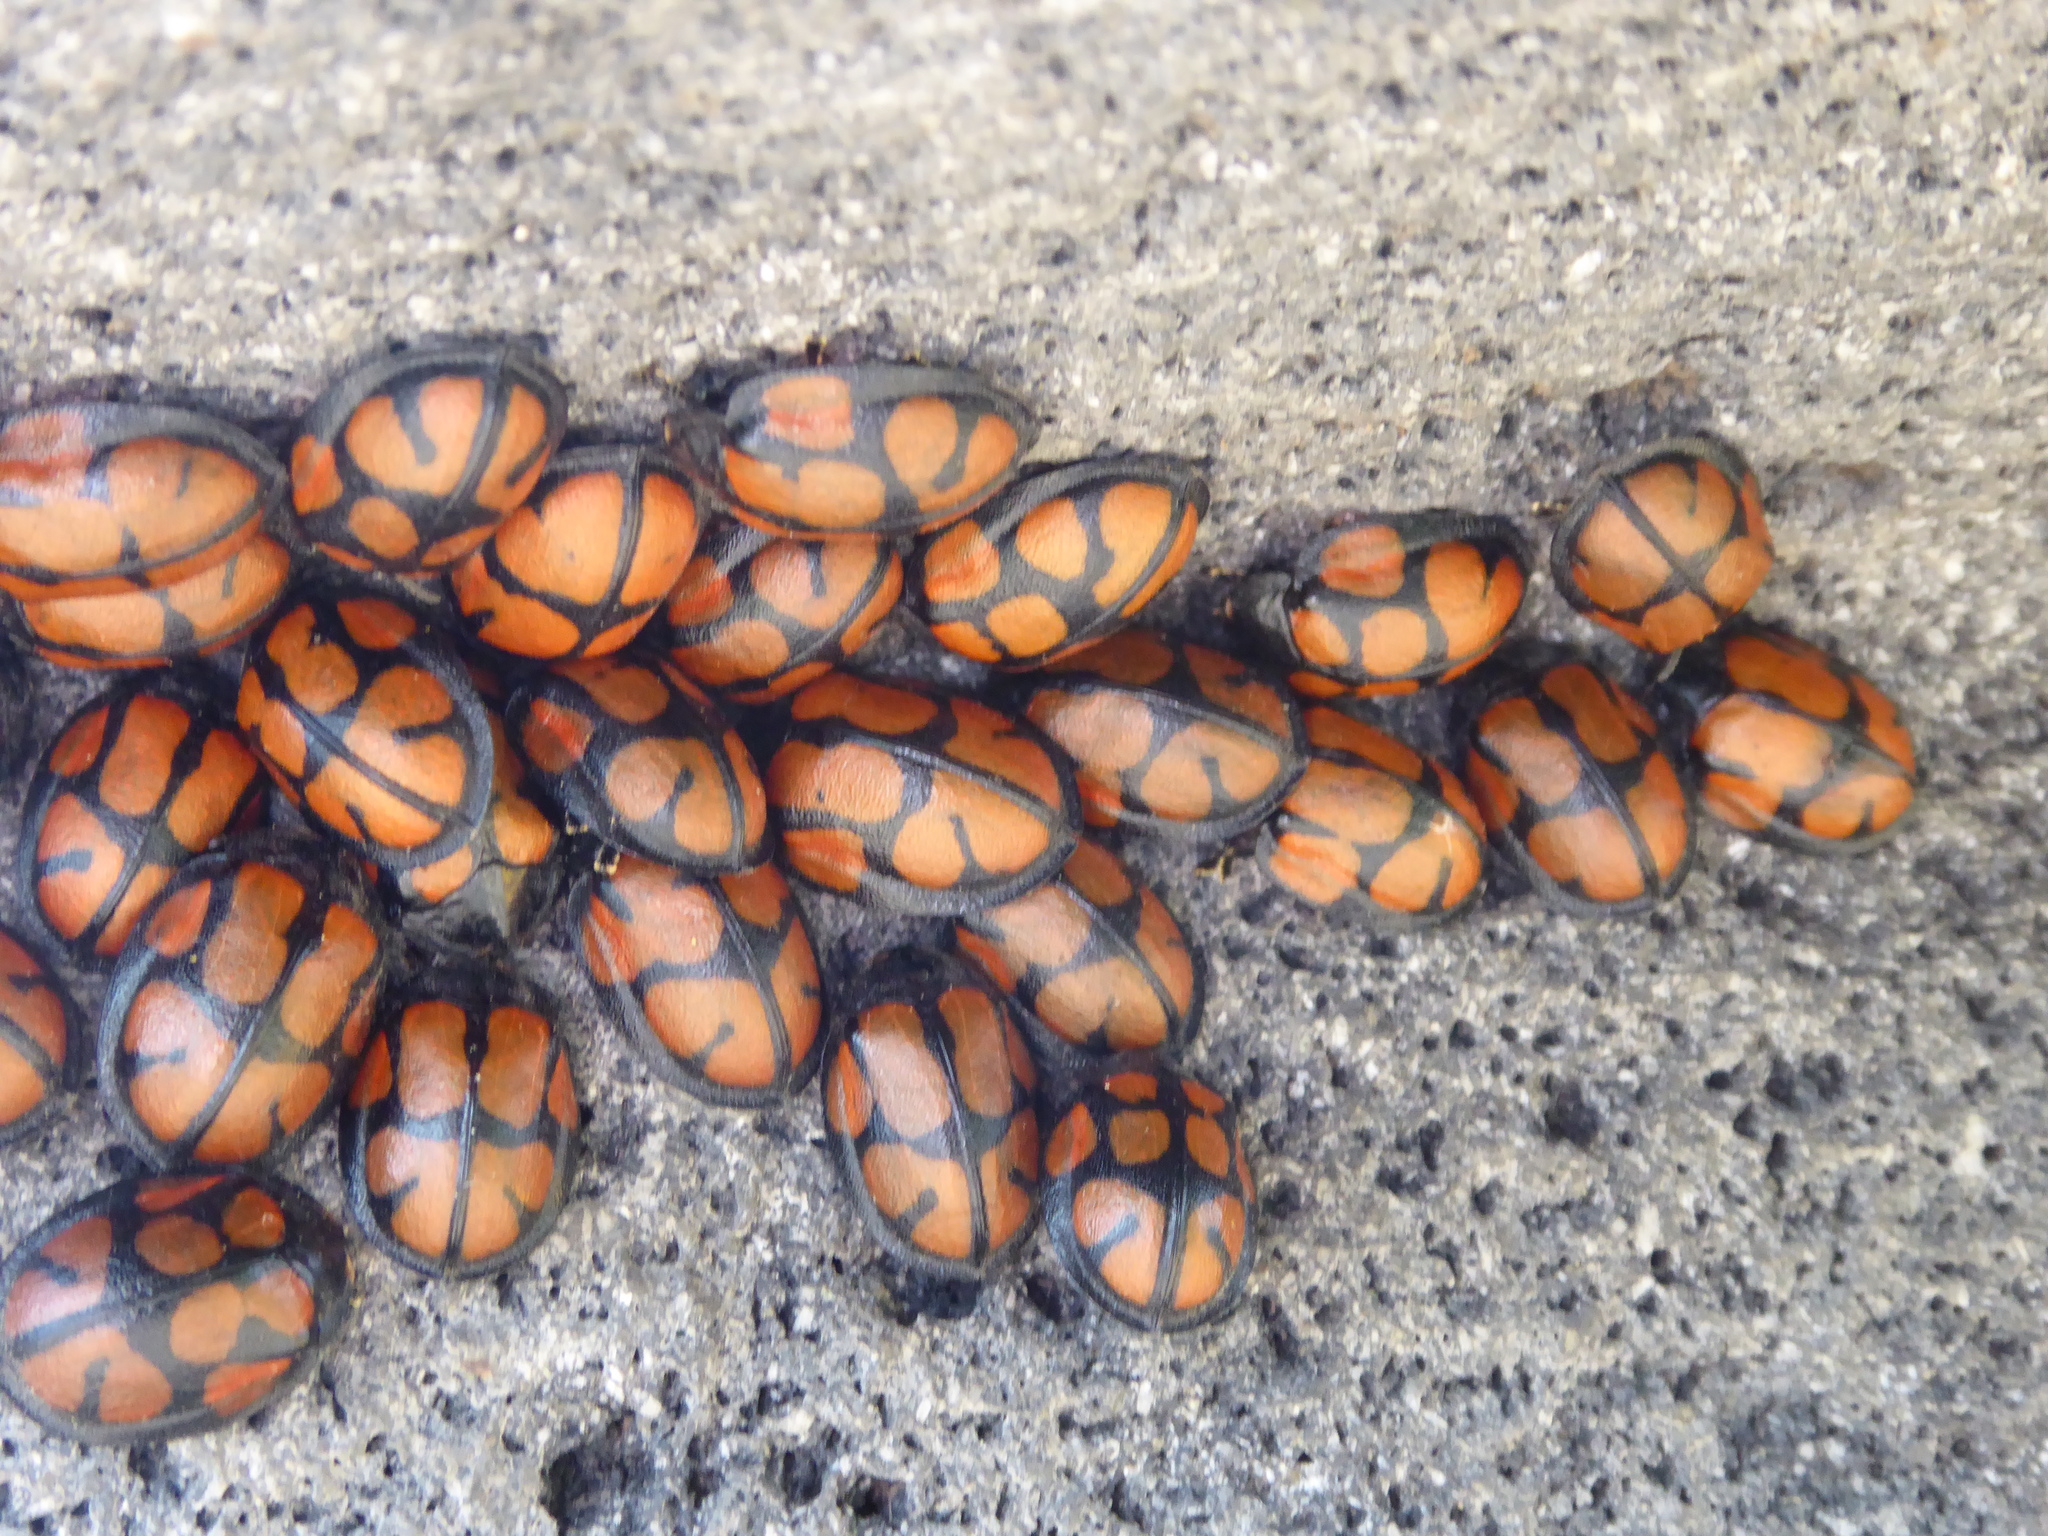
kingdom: Animalia
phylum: Arthropoda
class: Insecta
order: Coleoptera
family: Chrysomelidae
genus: Ogdoecosta
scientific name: Ogdoecosta fasciata
